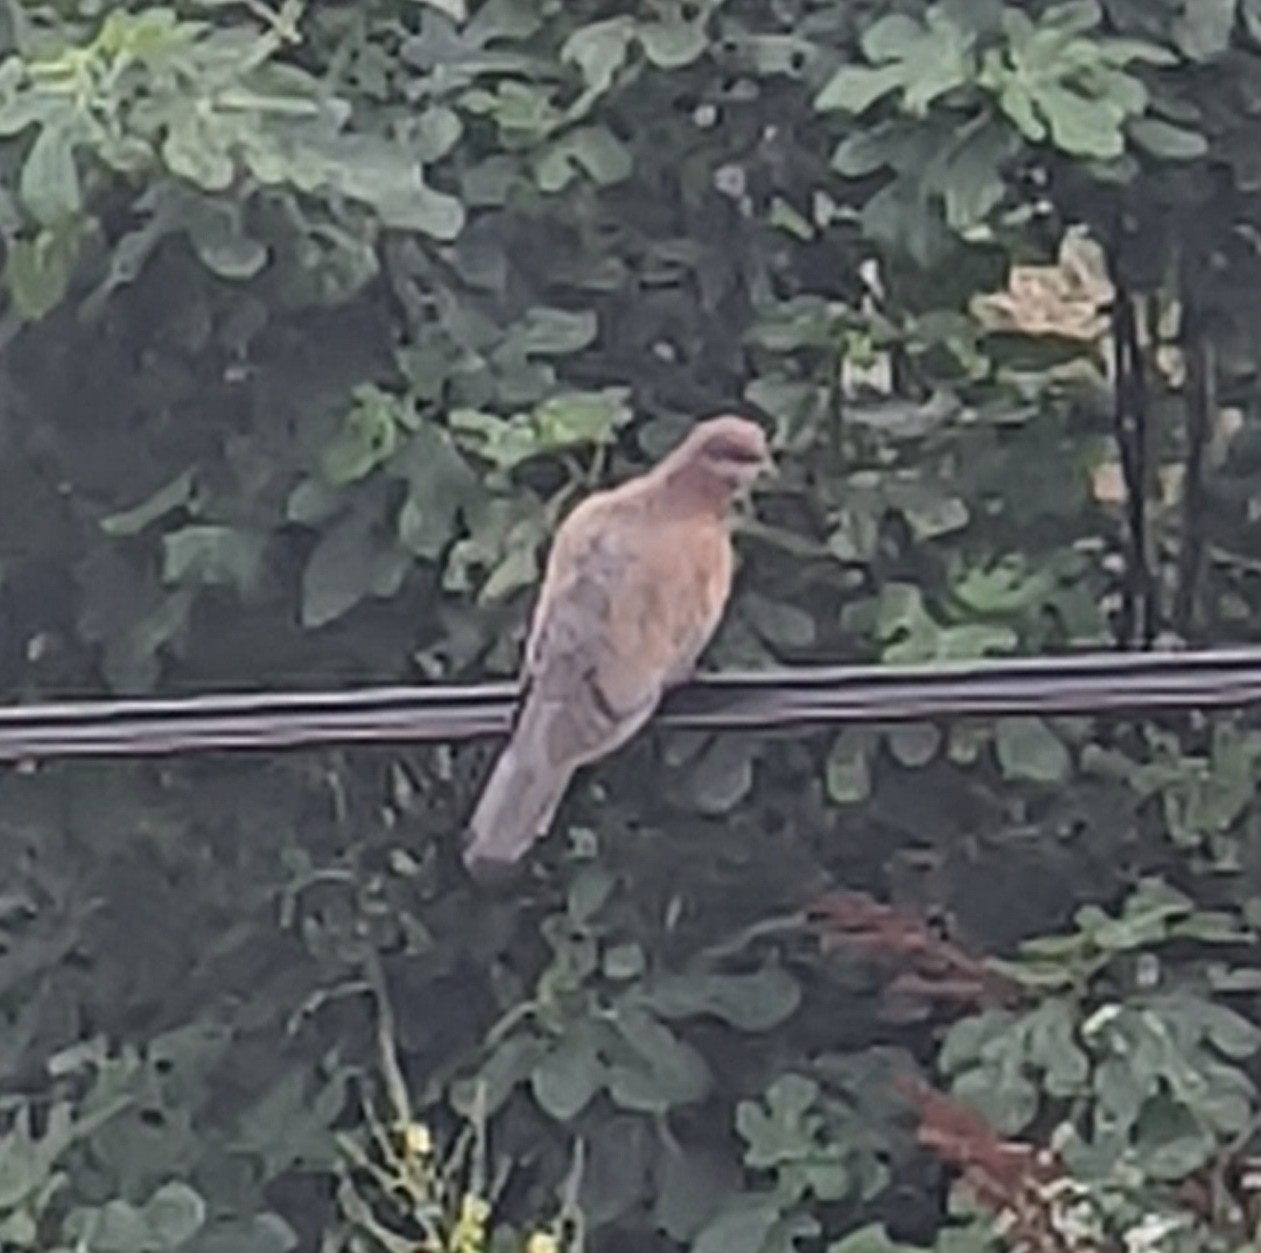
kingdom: Animalia
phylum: Chordata
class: Aves
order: Columbiformes
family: Columbidae
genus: Spilopelia
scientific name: Spilopelia senegalensis
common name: Laughing dove
